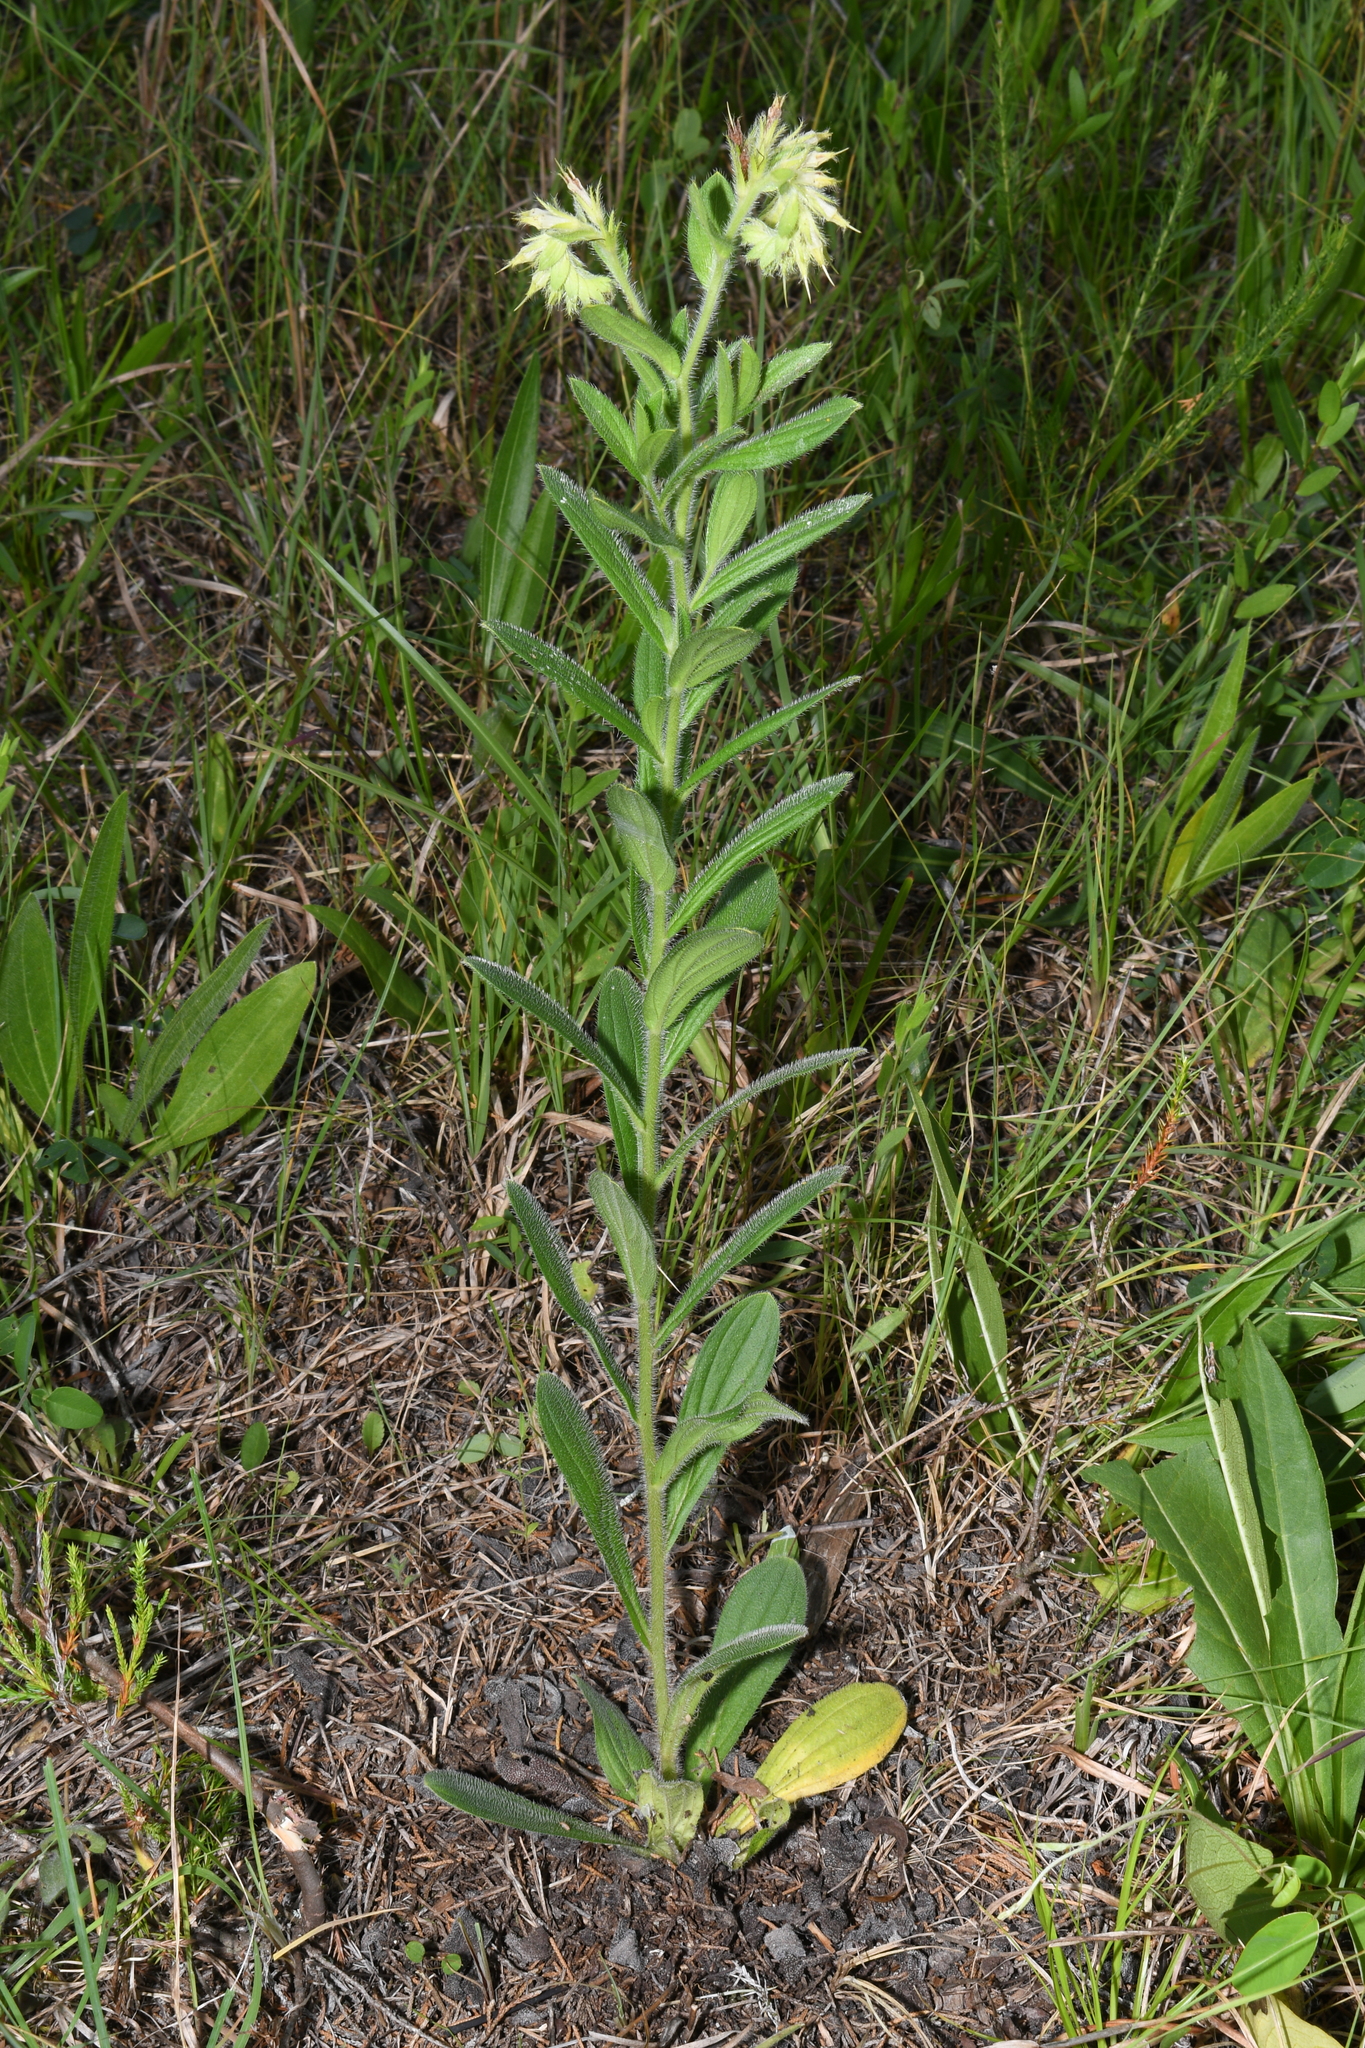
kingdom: Plantae
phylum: Tracheophyta
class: Magnoliopsida
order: Boraginales
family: Boraginaceae
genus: Lithospermum
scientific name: Lithospermum caroliniense
